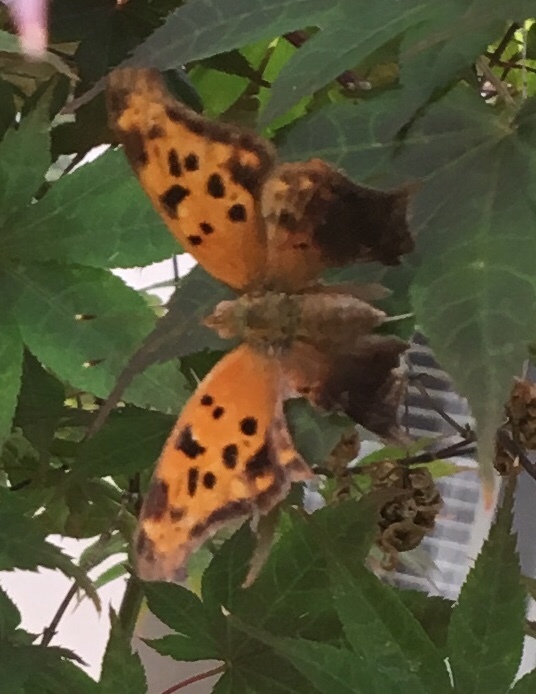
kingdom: Animalia
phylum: Arthropoda
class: Insecta
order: Lepidoptera
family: Nymphalidae
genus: Polygonia
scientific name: Polygonia interrogationis
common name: Question mark
